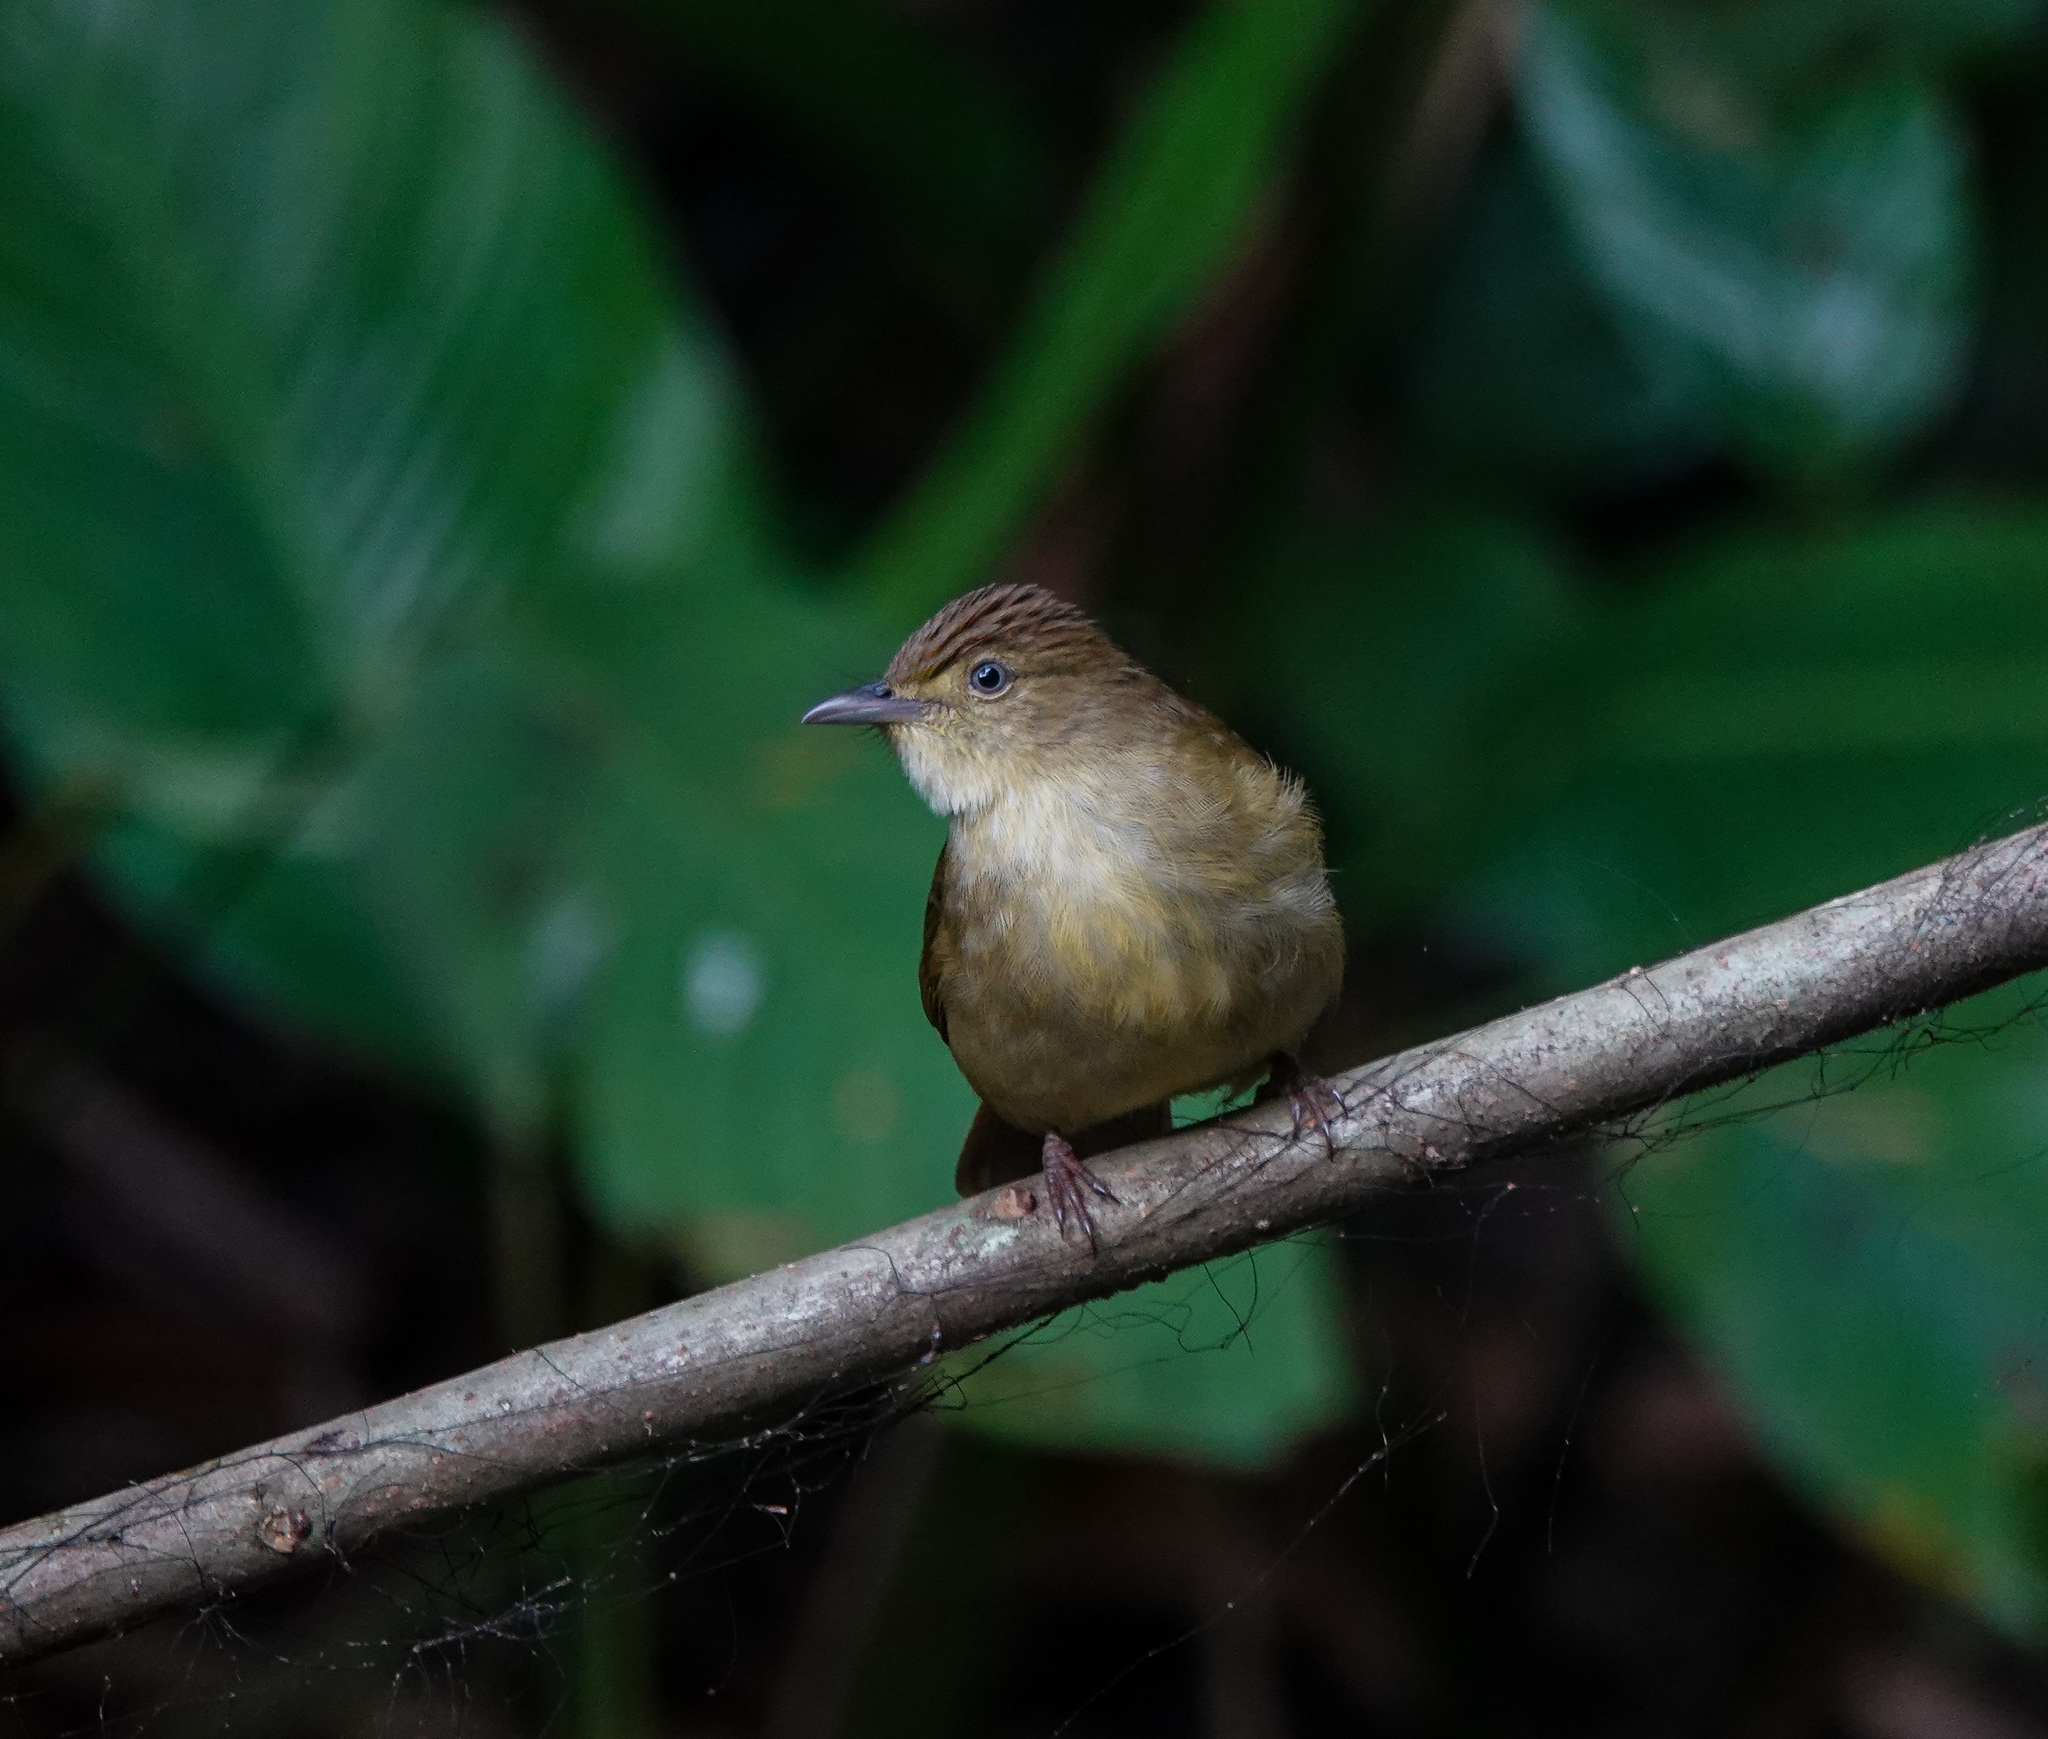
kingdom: Animalia
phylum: Chordata
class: Aves
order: Passeriformes
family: Pycnonotidae
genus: Iole
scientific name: Iole virescens
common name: Olive bulbul
